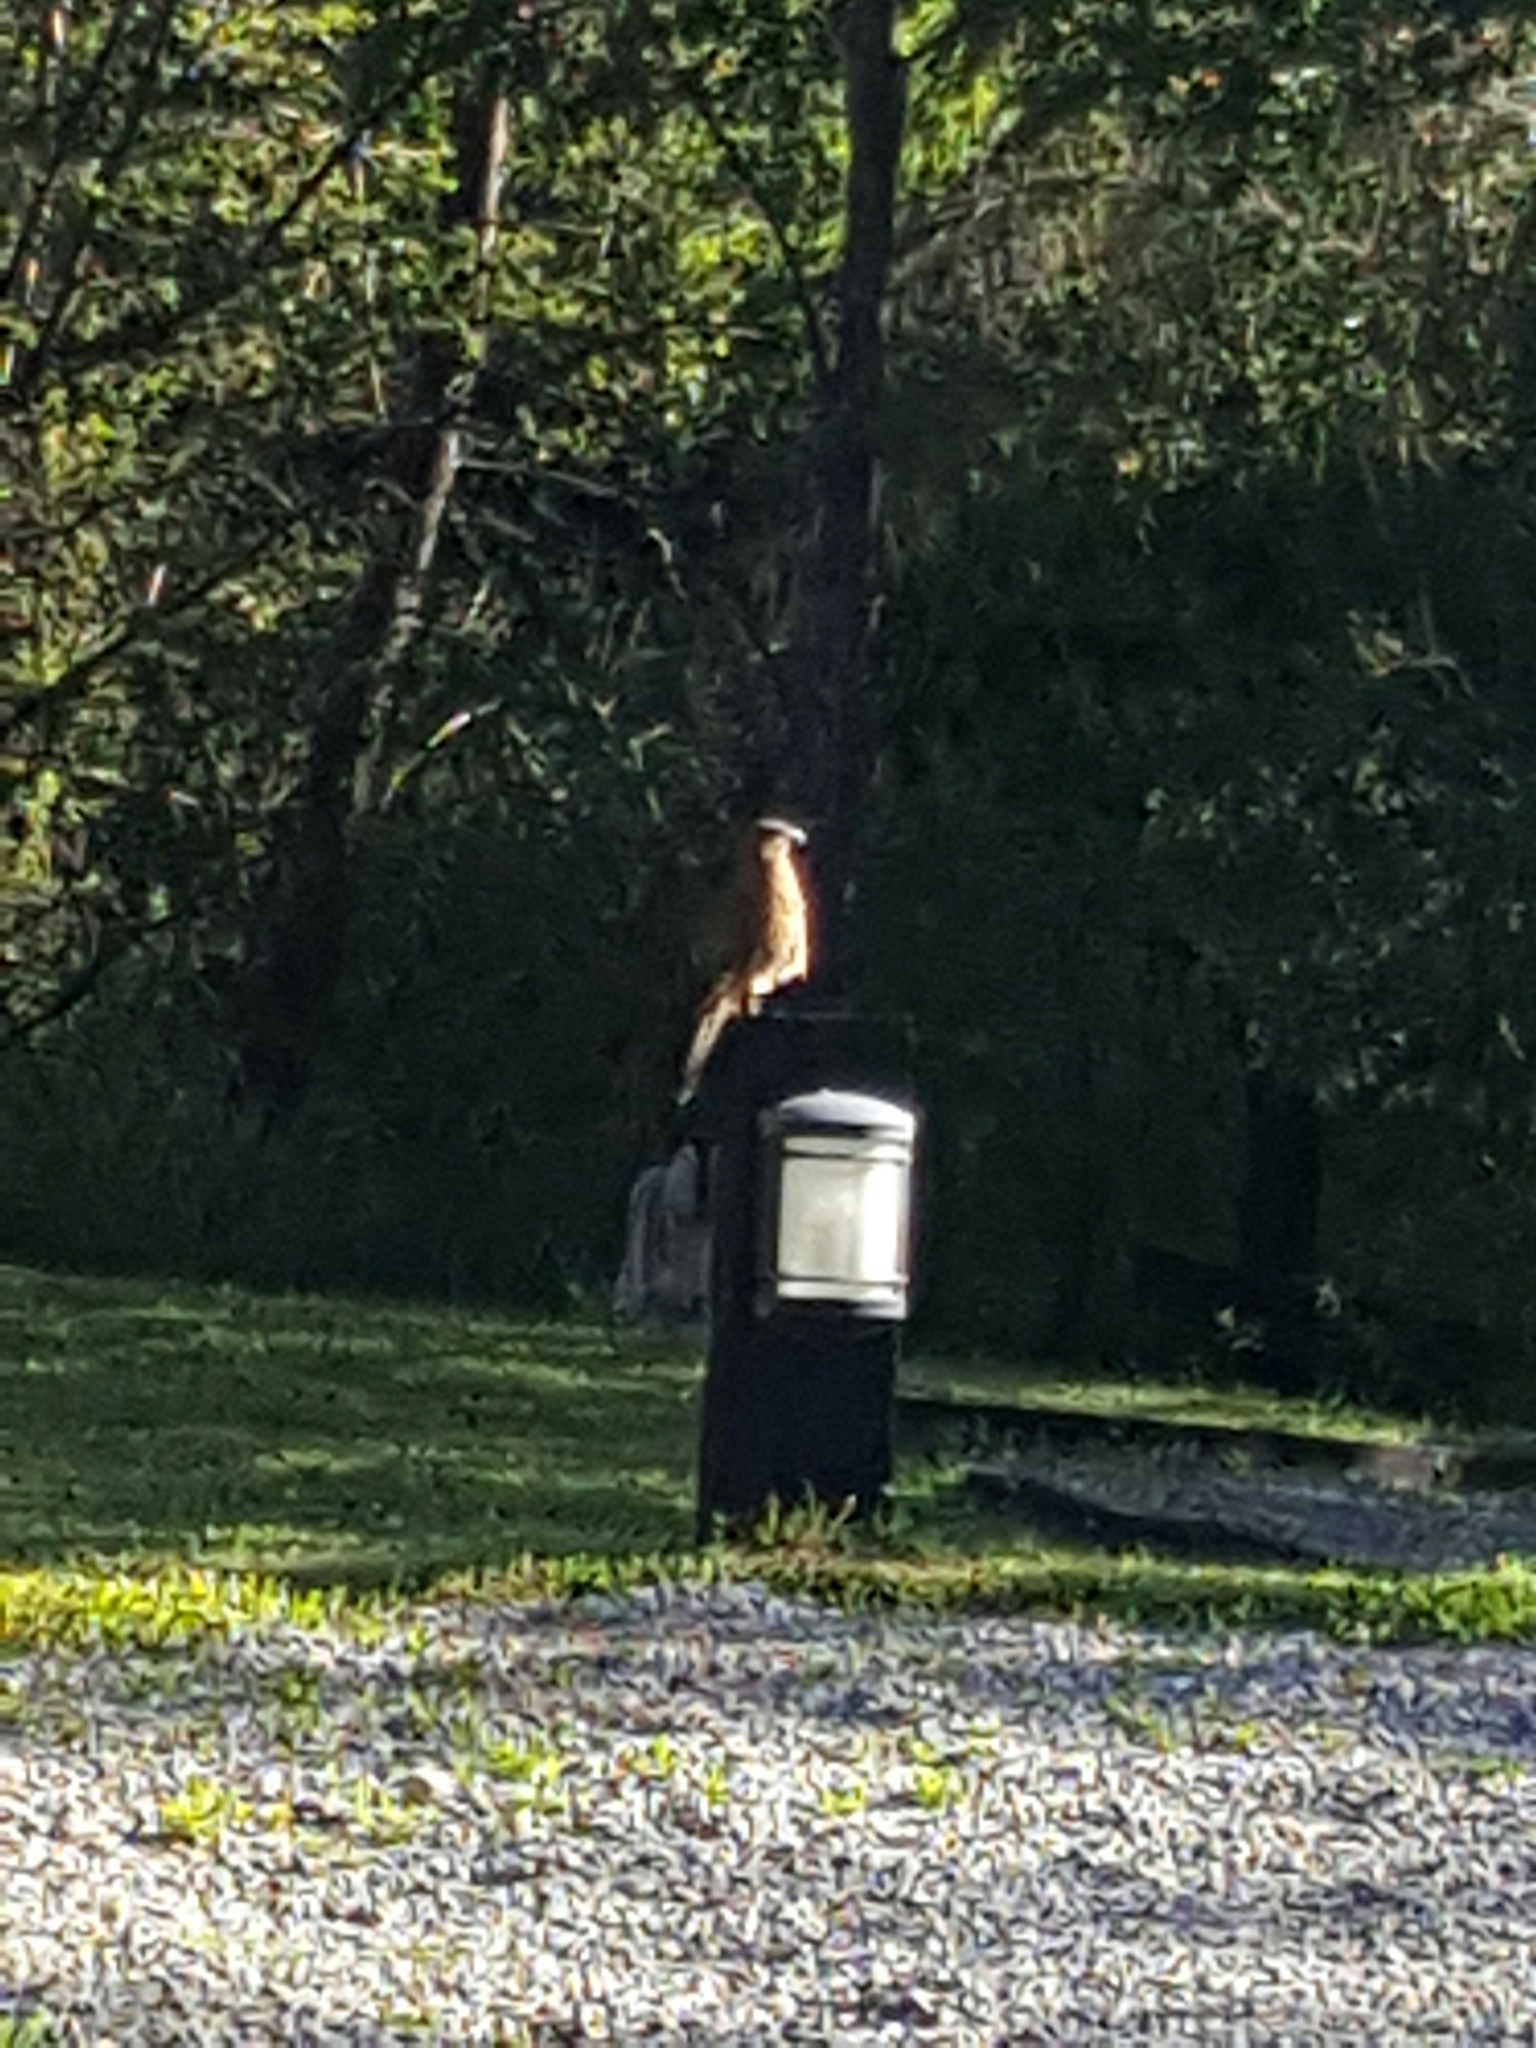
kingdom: Animalia
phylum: Chordata
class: Aves
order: Falconiformes
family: Falconidae
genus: Daptrius
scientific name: Daptrius
